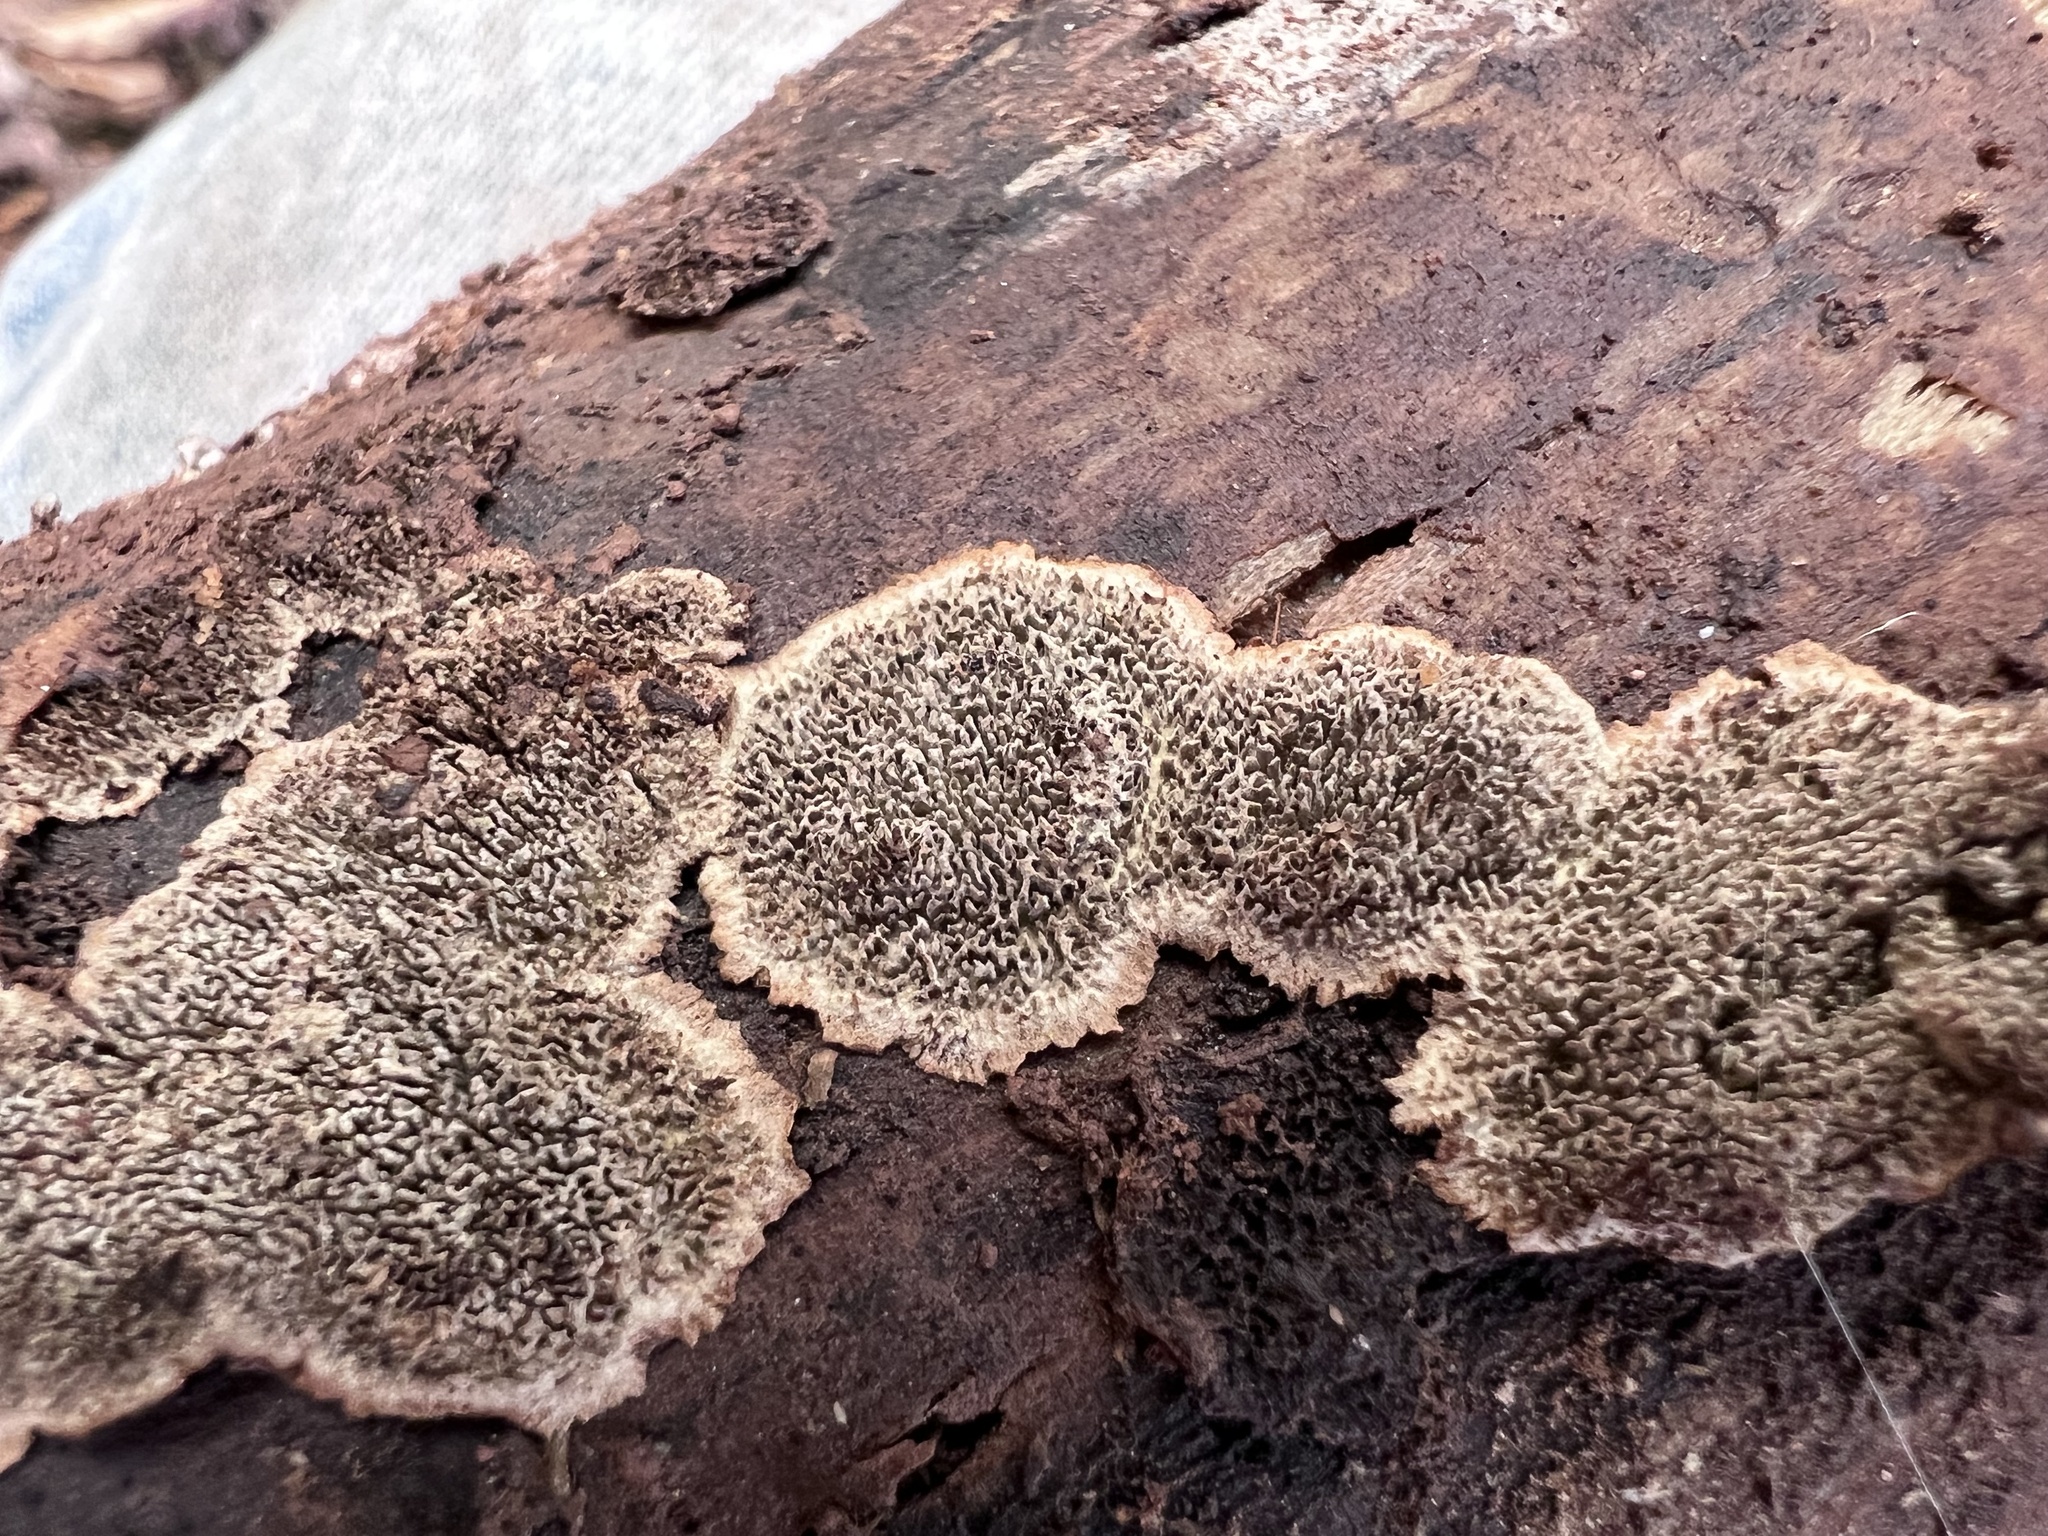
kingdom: Fungi
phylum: Basidiomycota
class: Agaricomycetes
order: Polyporales
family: Polyporaceae
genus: Dentocorticium
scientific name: Dentocorticium portoricense
